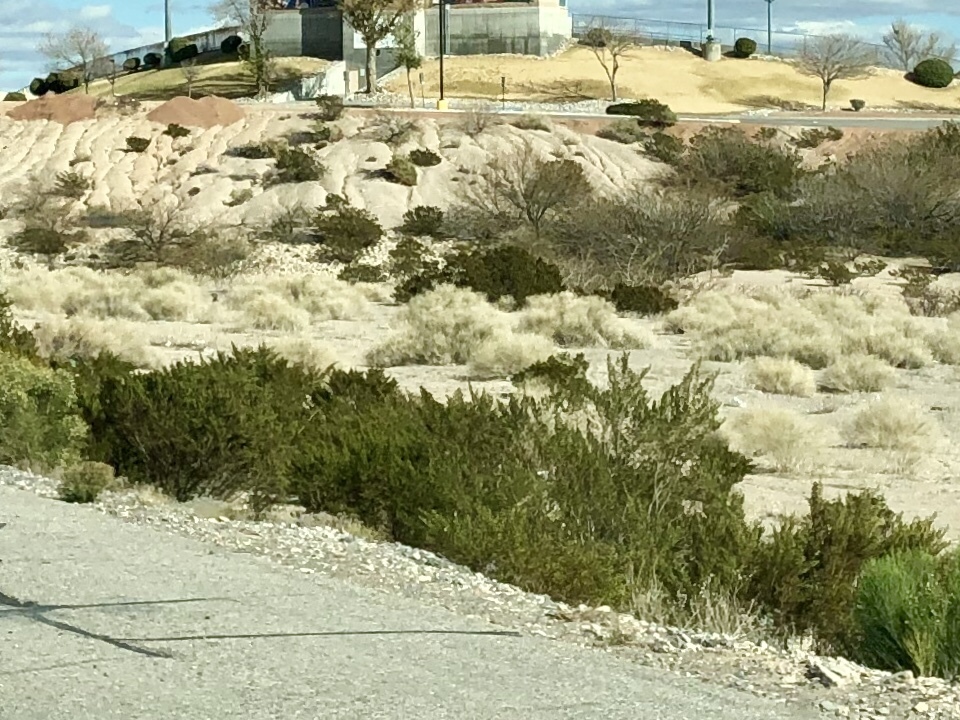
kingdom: Plantae
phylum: Tracheophyta
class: Magnoliopsida
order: Zygophyllales
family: Zygophyllaceae
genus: Larrea
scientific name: Larrea tridentata
